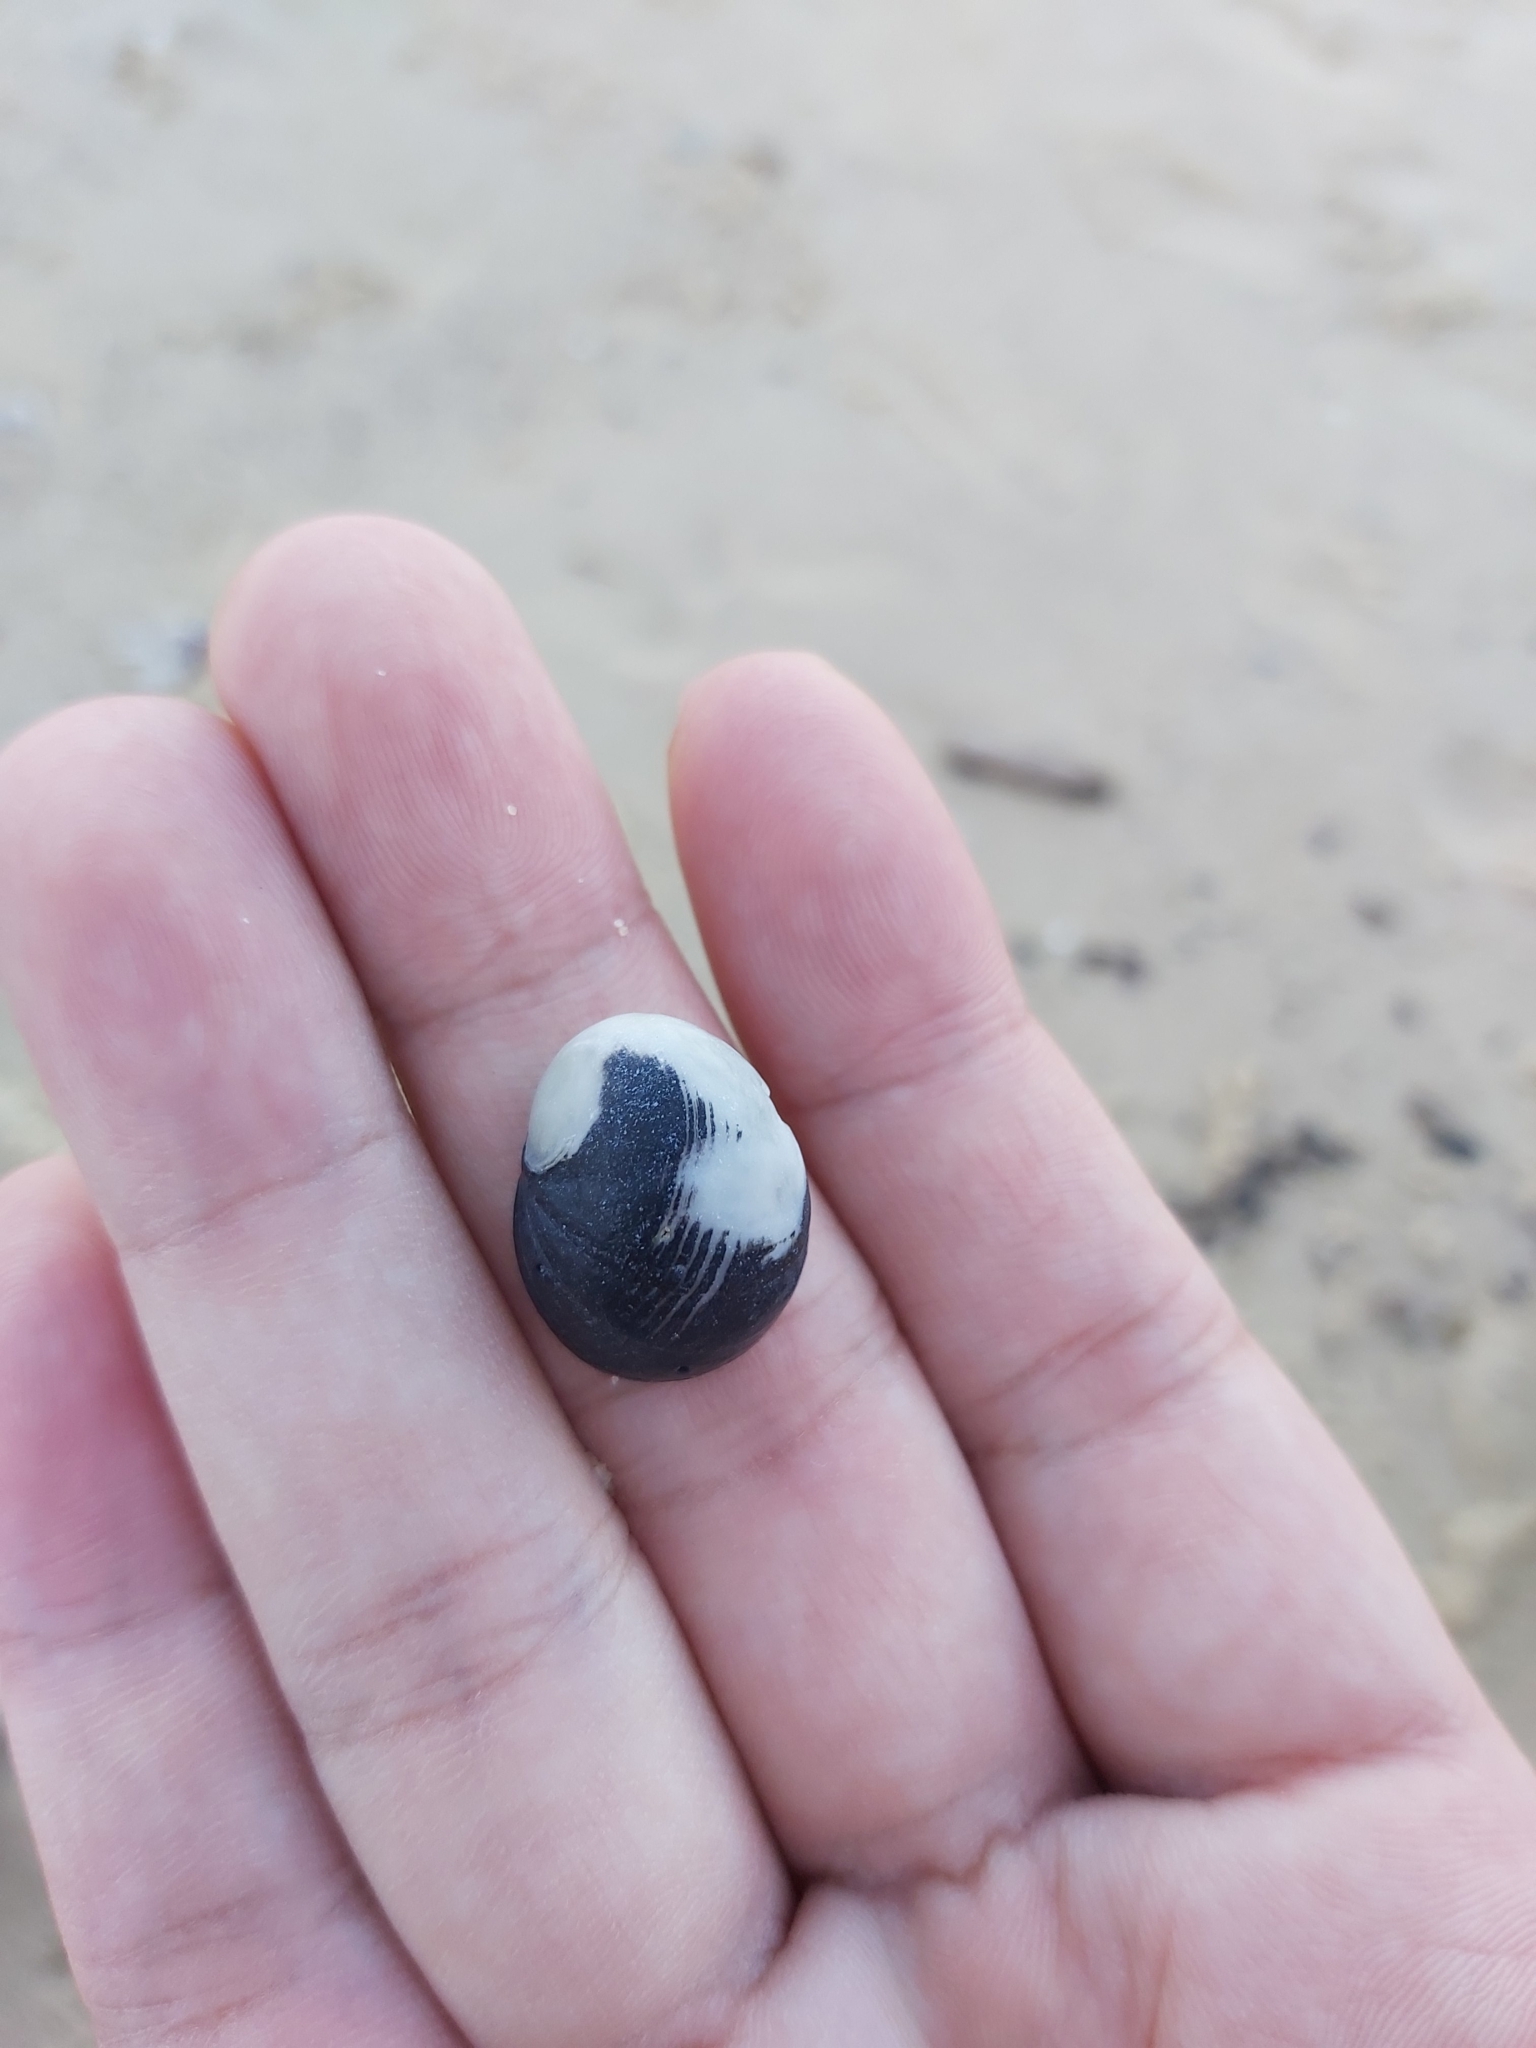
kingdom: Animalia
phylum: Mollusca
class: Gastropoda
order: Cycloneritida
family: Neritidae
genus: Nerita
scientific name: Nerita melanotragus
